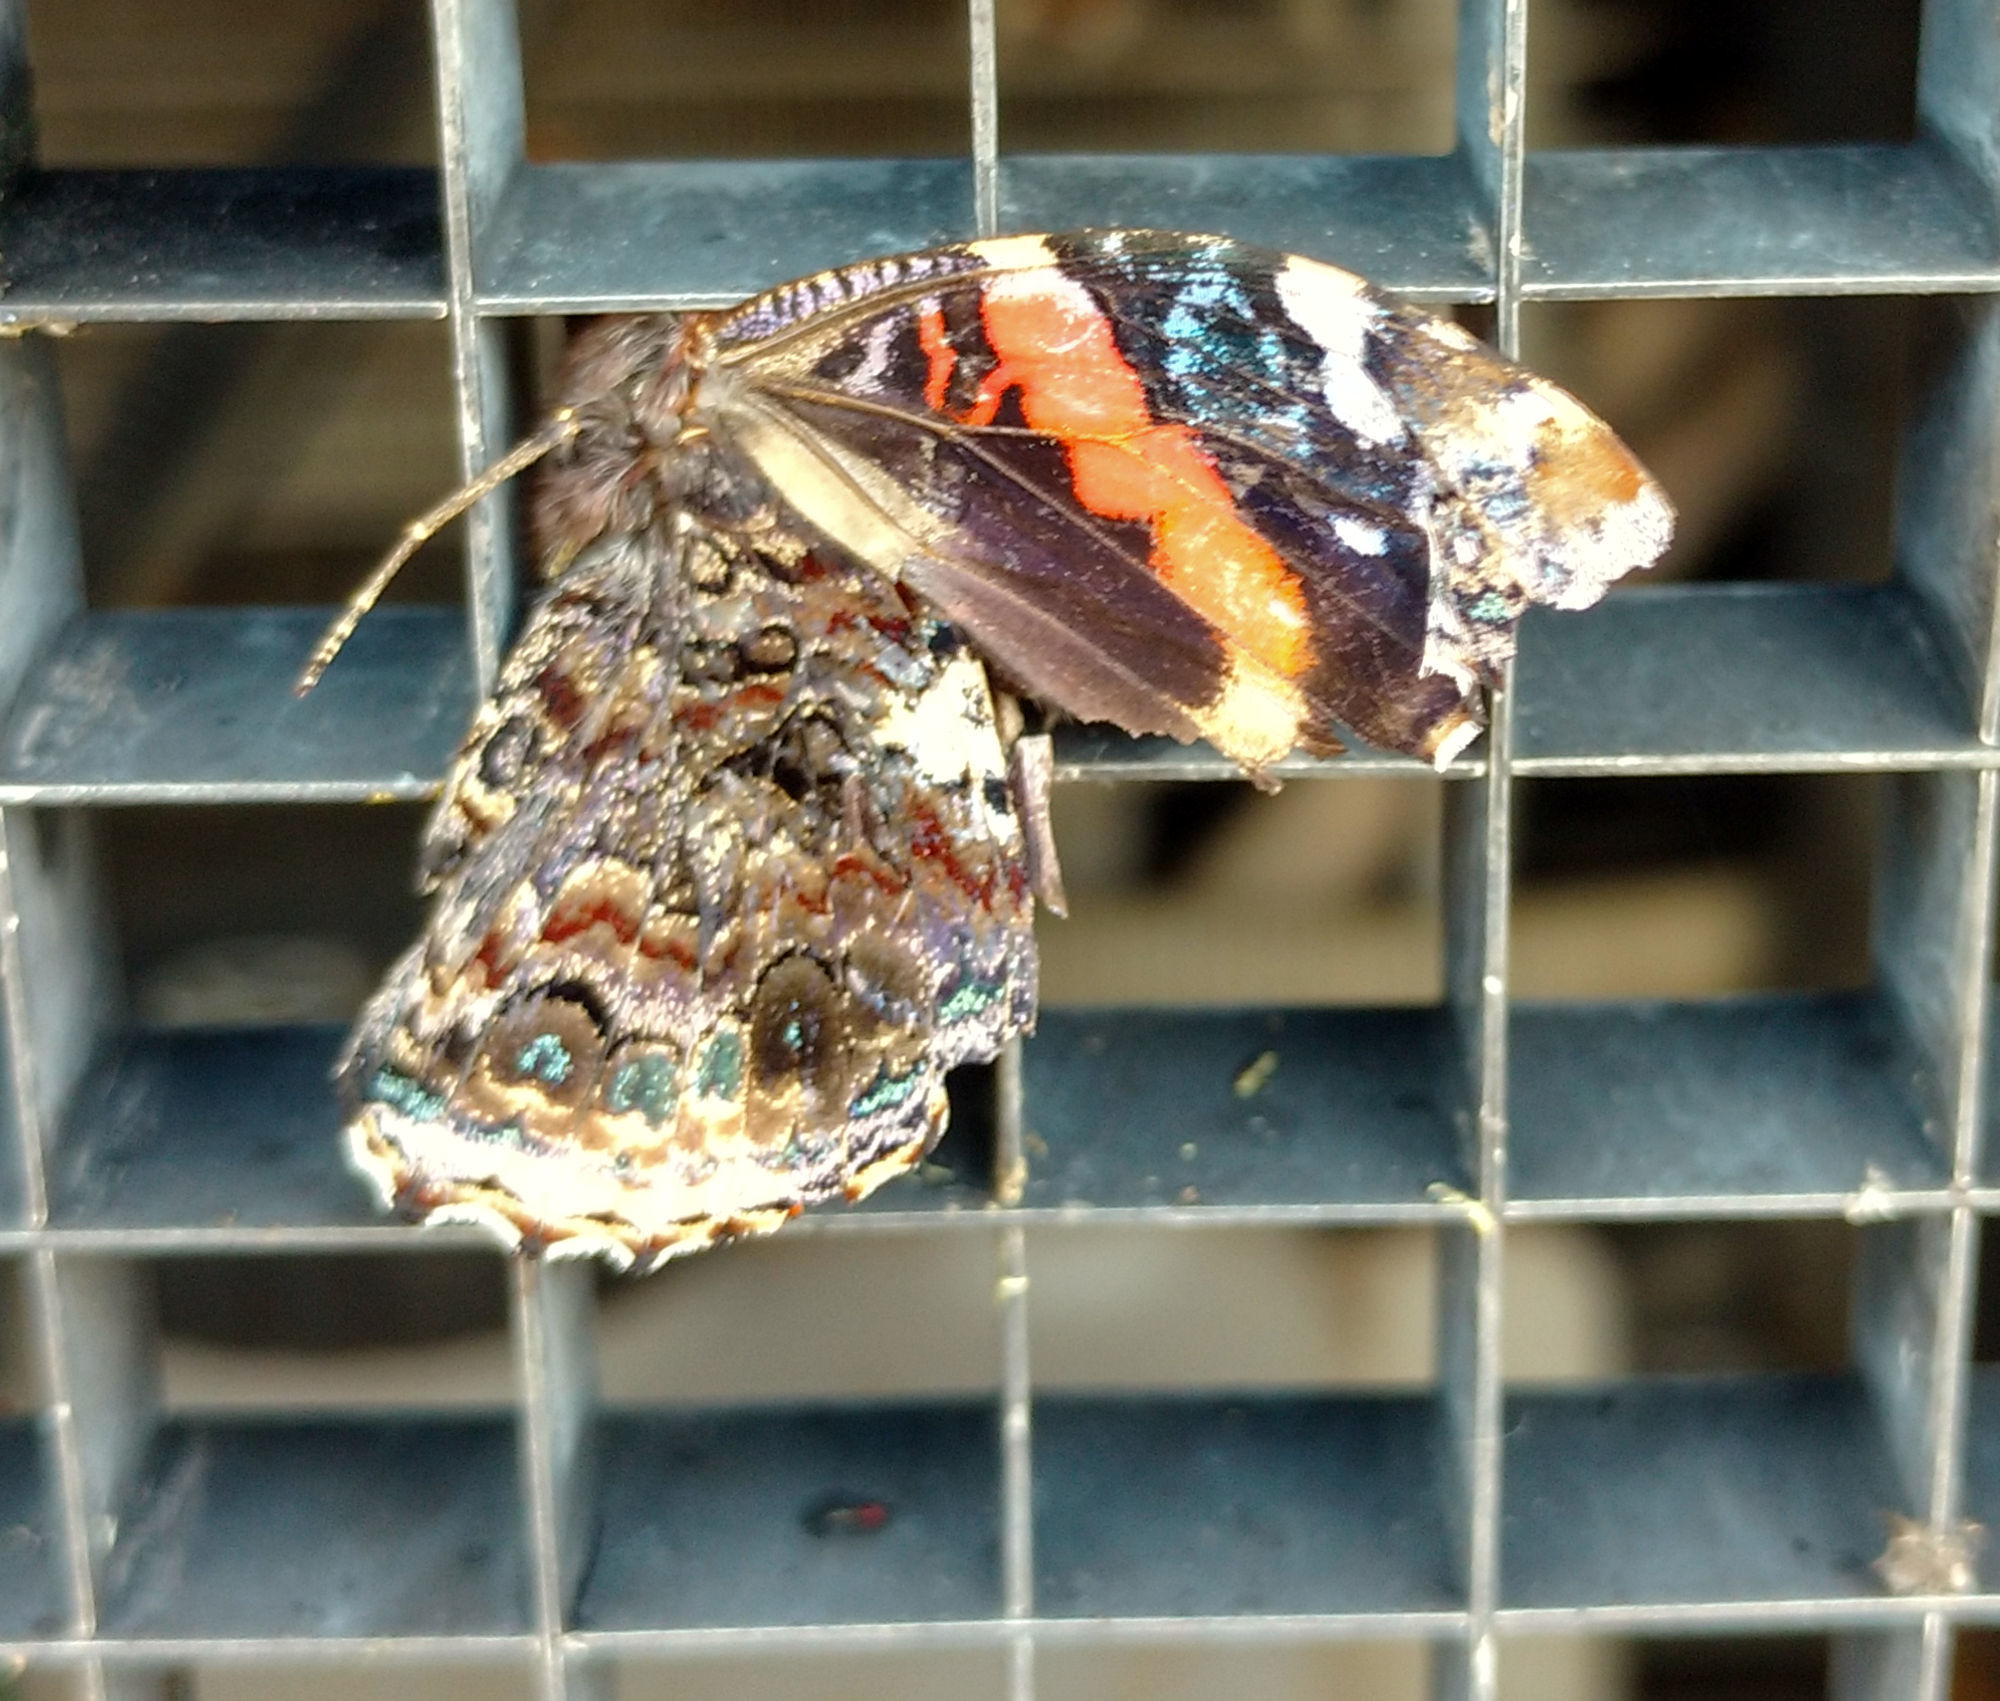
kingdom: Animalia
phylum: Arthropoda
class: Insecta
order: Lepidoptera
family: Nymphalidae
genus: Vanessa
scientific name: Vanessa atalanta
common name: Red admiral
